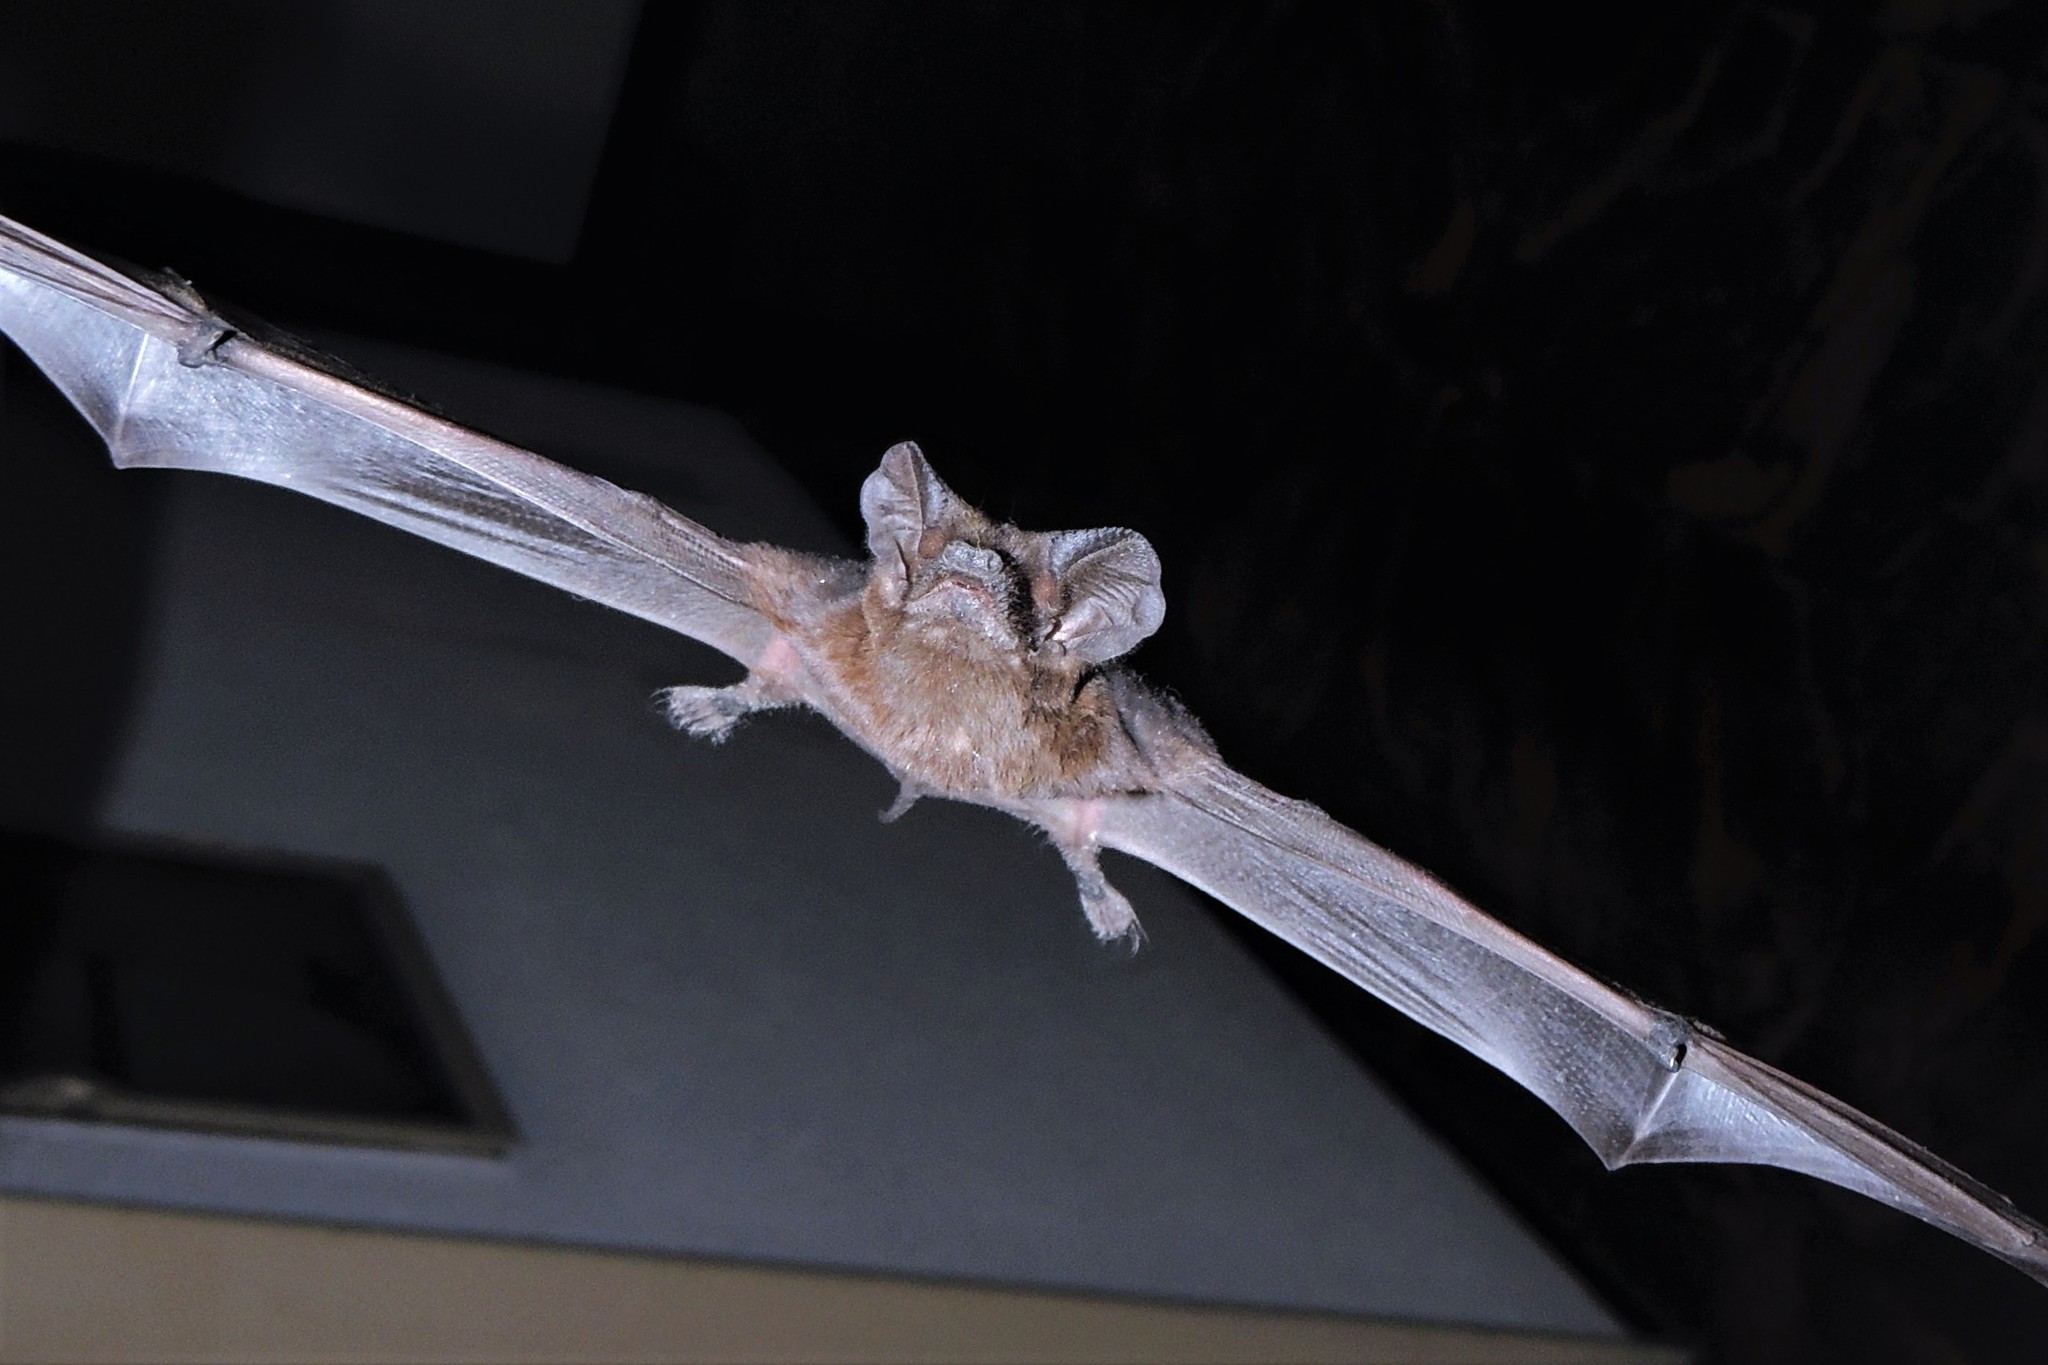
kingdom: Animalia
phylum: Chordata
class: Mammalia
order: Chiroptera
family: Molossidae
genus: Tadarida
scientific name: Tadarida brasiliensis
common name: Mexican free-tailed bat
